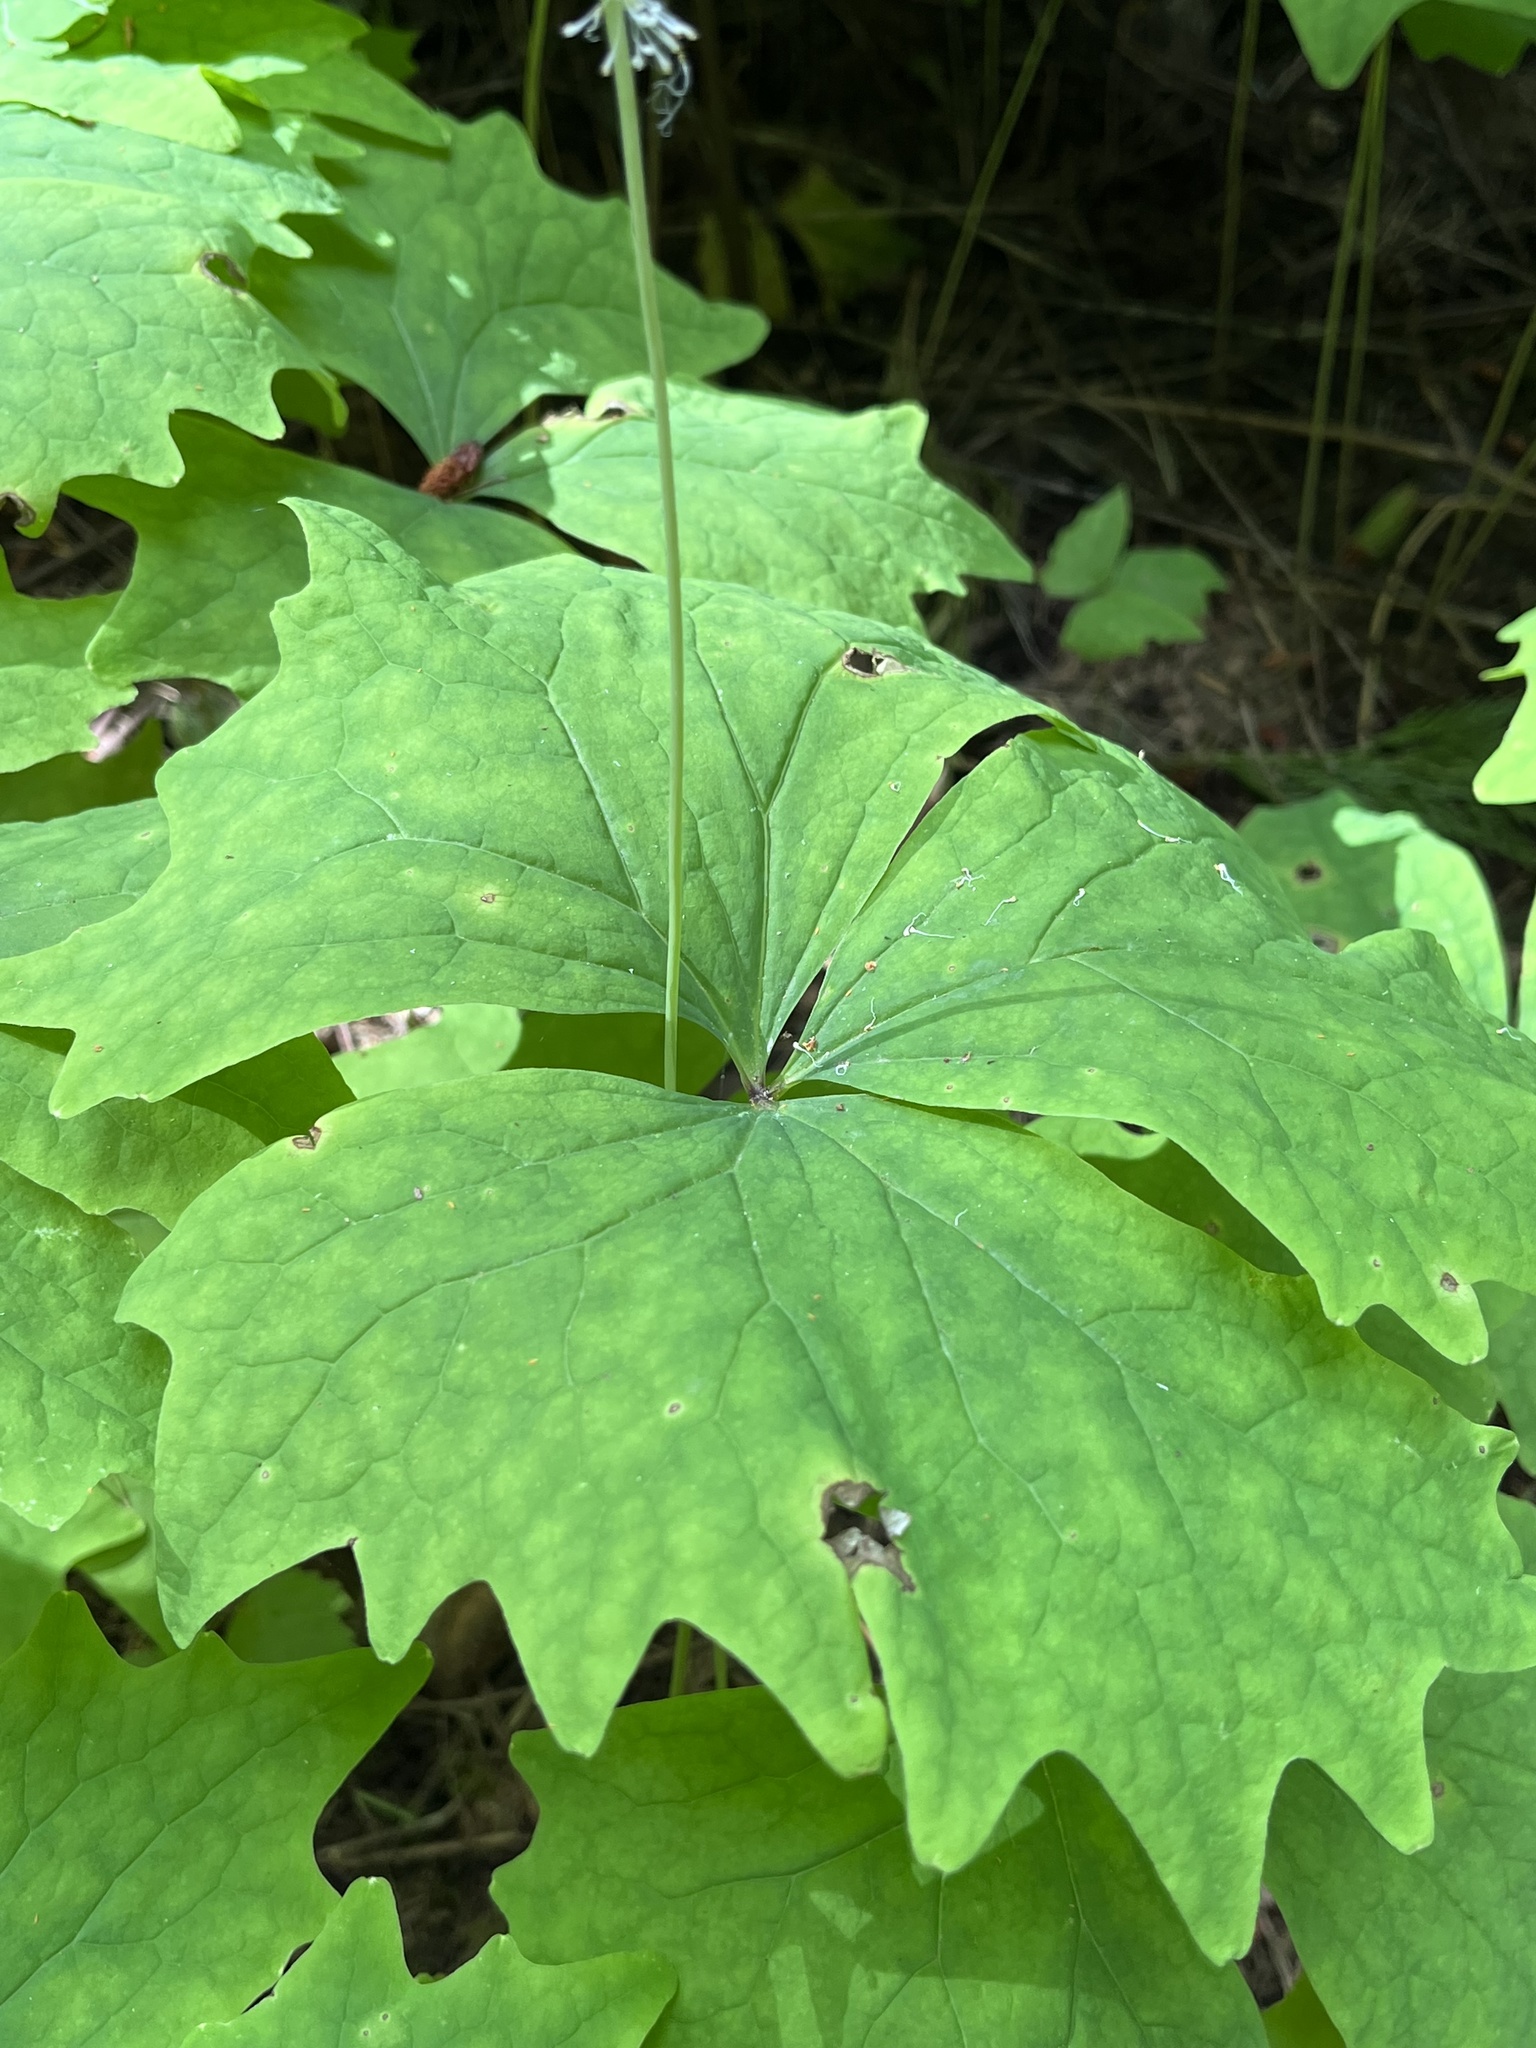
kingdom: Plantae
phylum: Tracheophyta
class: Magnoliopsida
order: Ranunculales
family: Berberidaceae
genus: Achlys
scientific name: Achlys triphylla
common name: Vanilla-leaf
